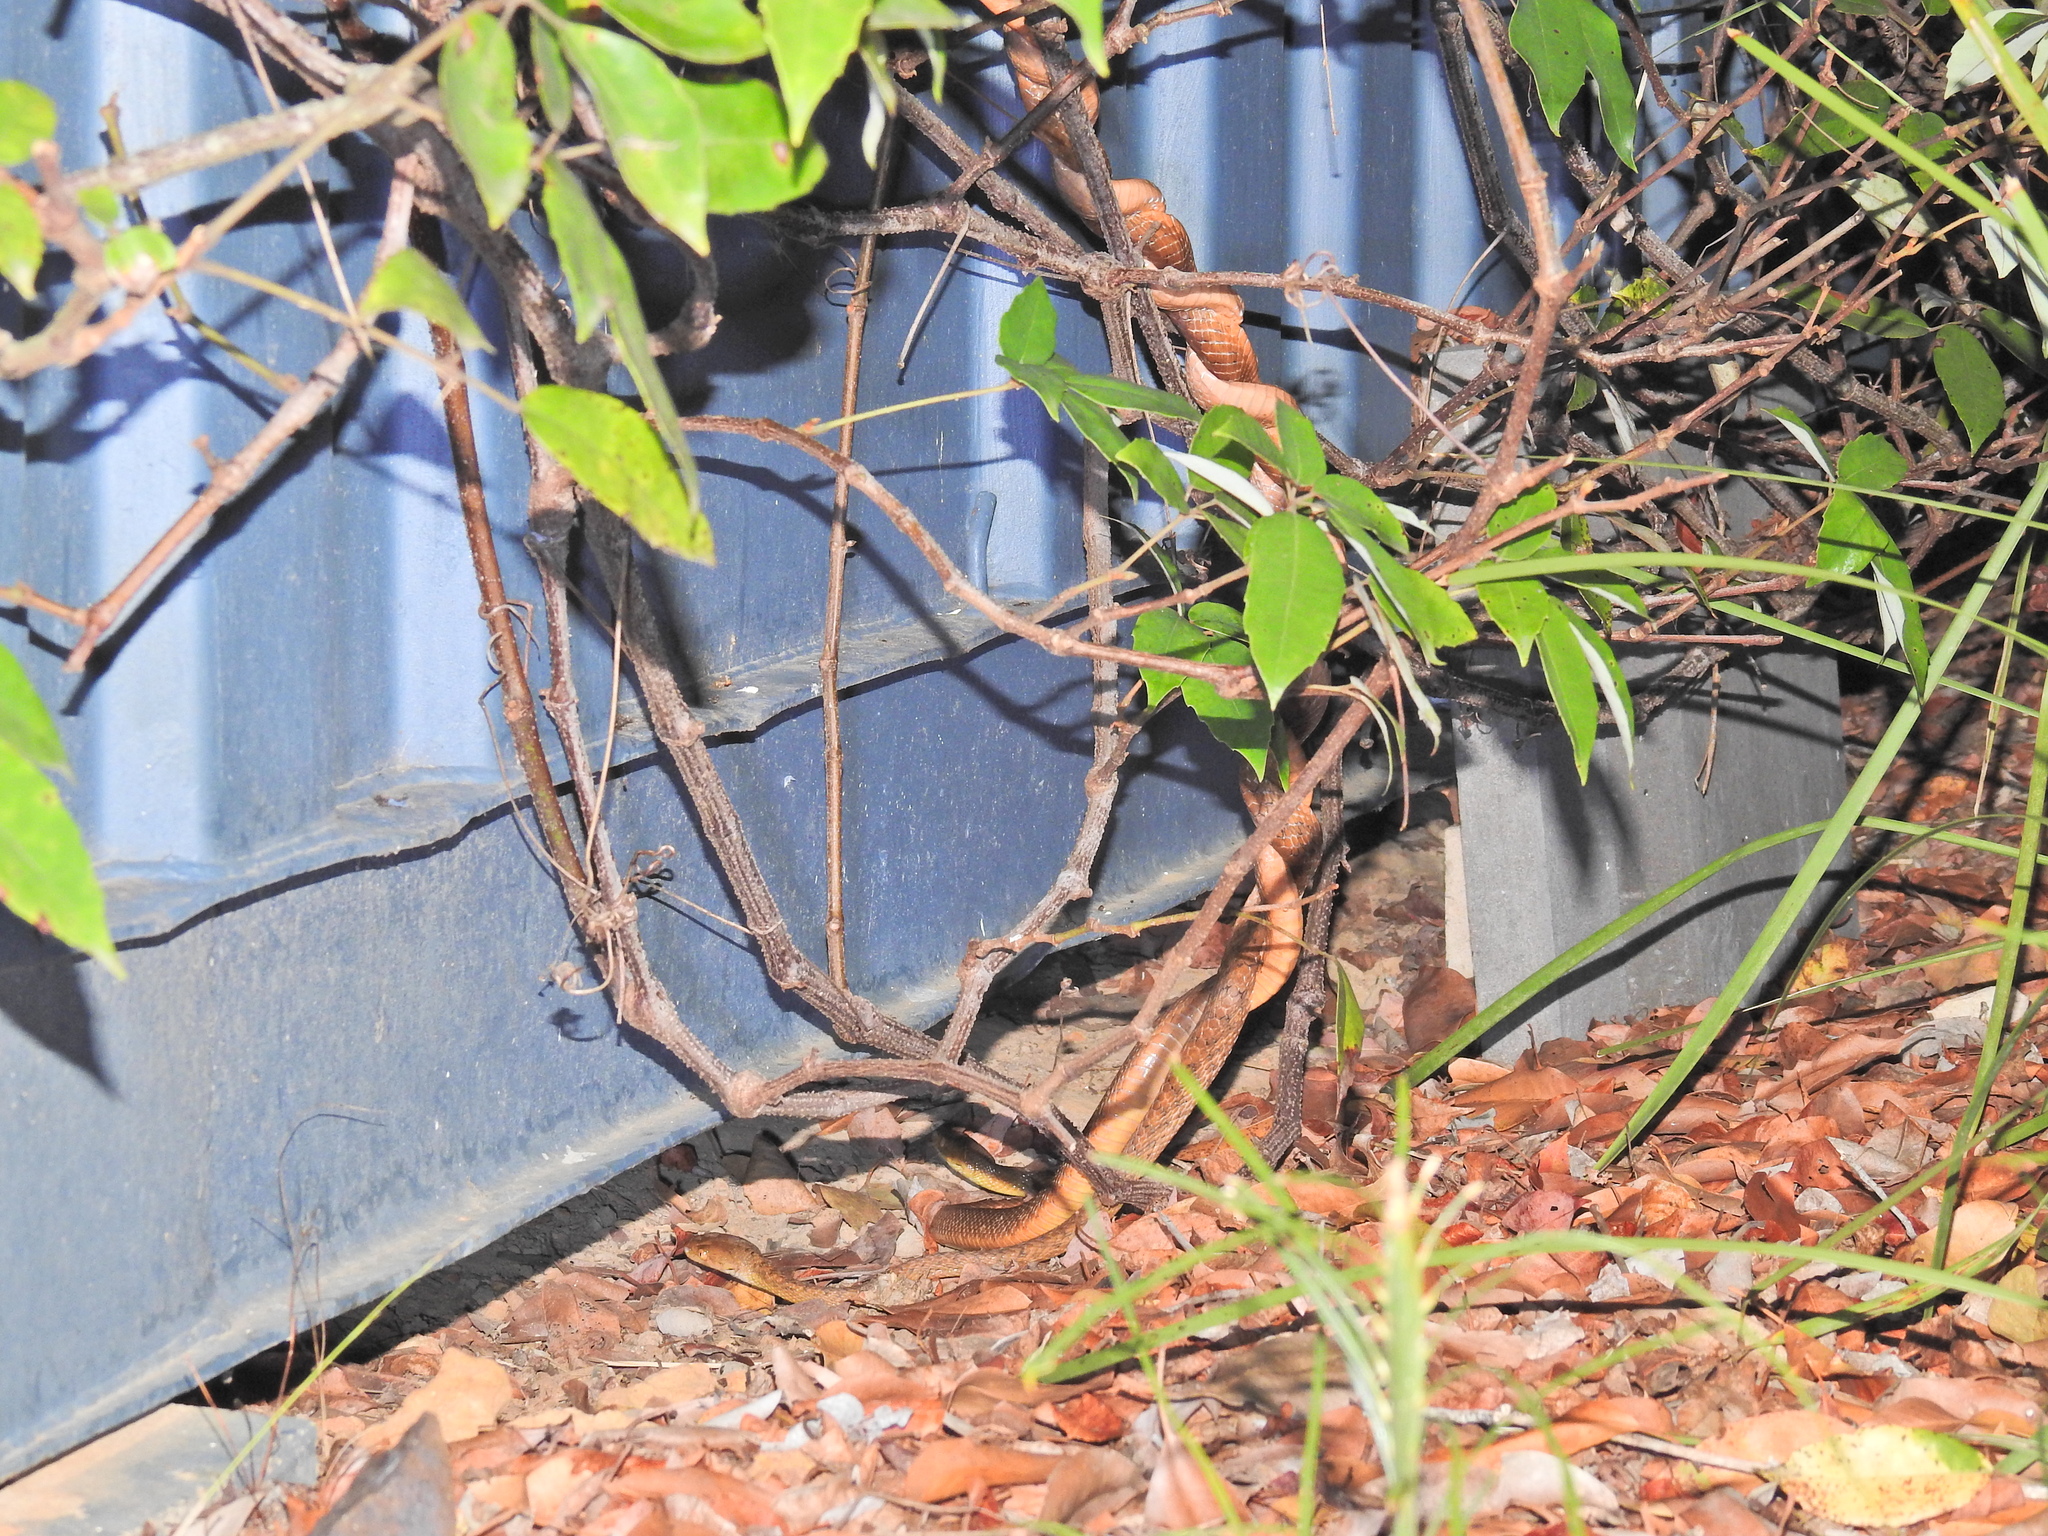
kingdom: Animalia
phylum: Chordata
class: Squamata
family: Colubridae
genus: Boiga
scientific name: Boiga irregularis
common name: Brown tree snake
